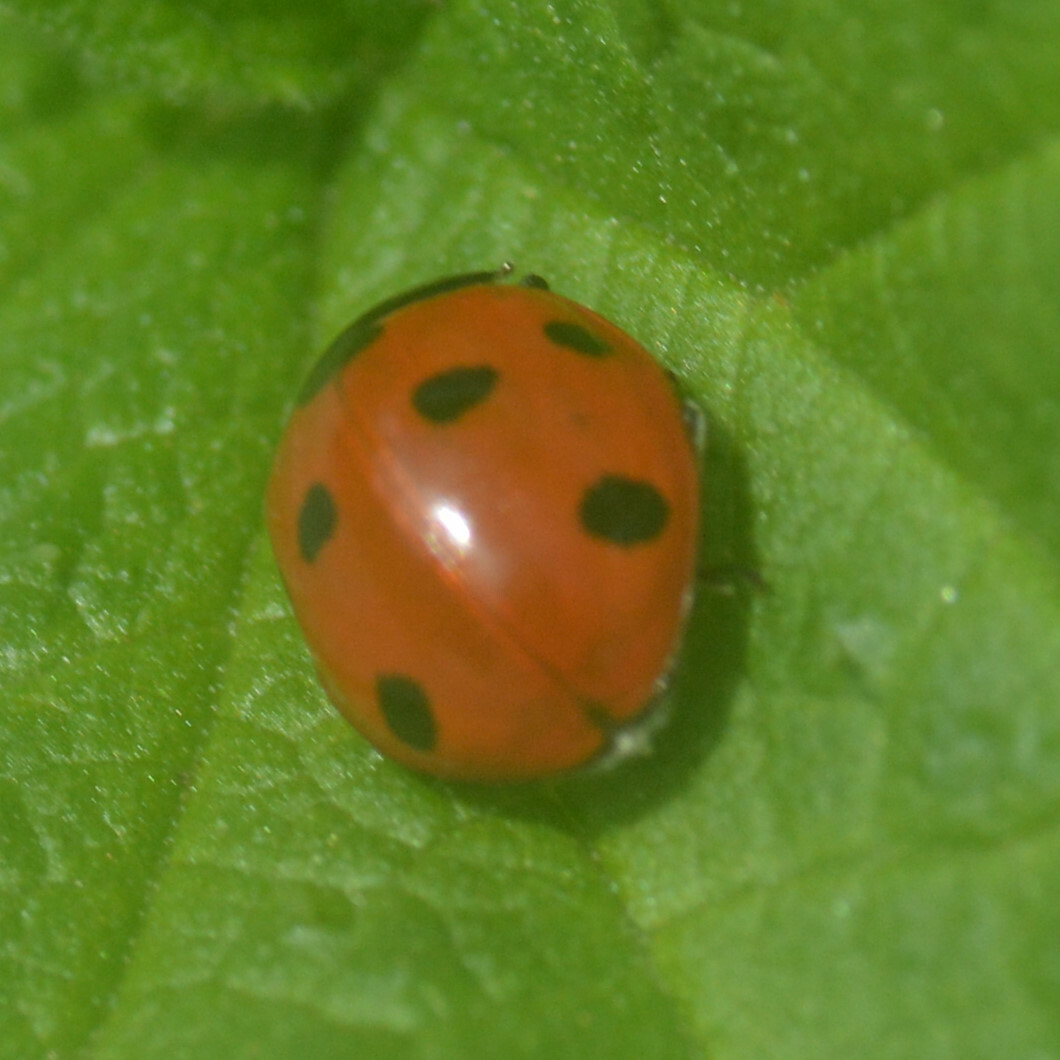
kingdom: Animalia
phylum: Arthropoda
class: Insecta
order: Coleoptera
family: Coccinellidae
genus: Coccinella
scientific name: Coccinella septempunctata
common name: Sevenspotted lady beetle
